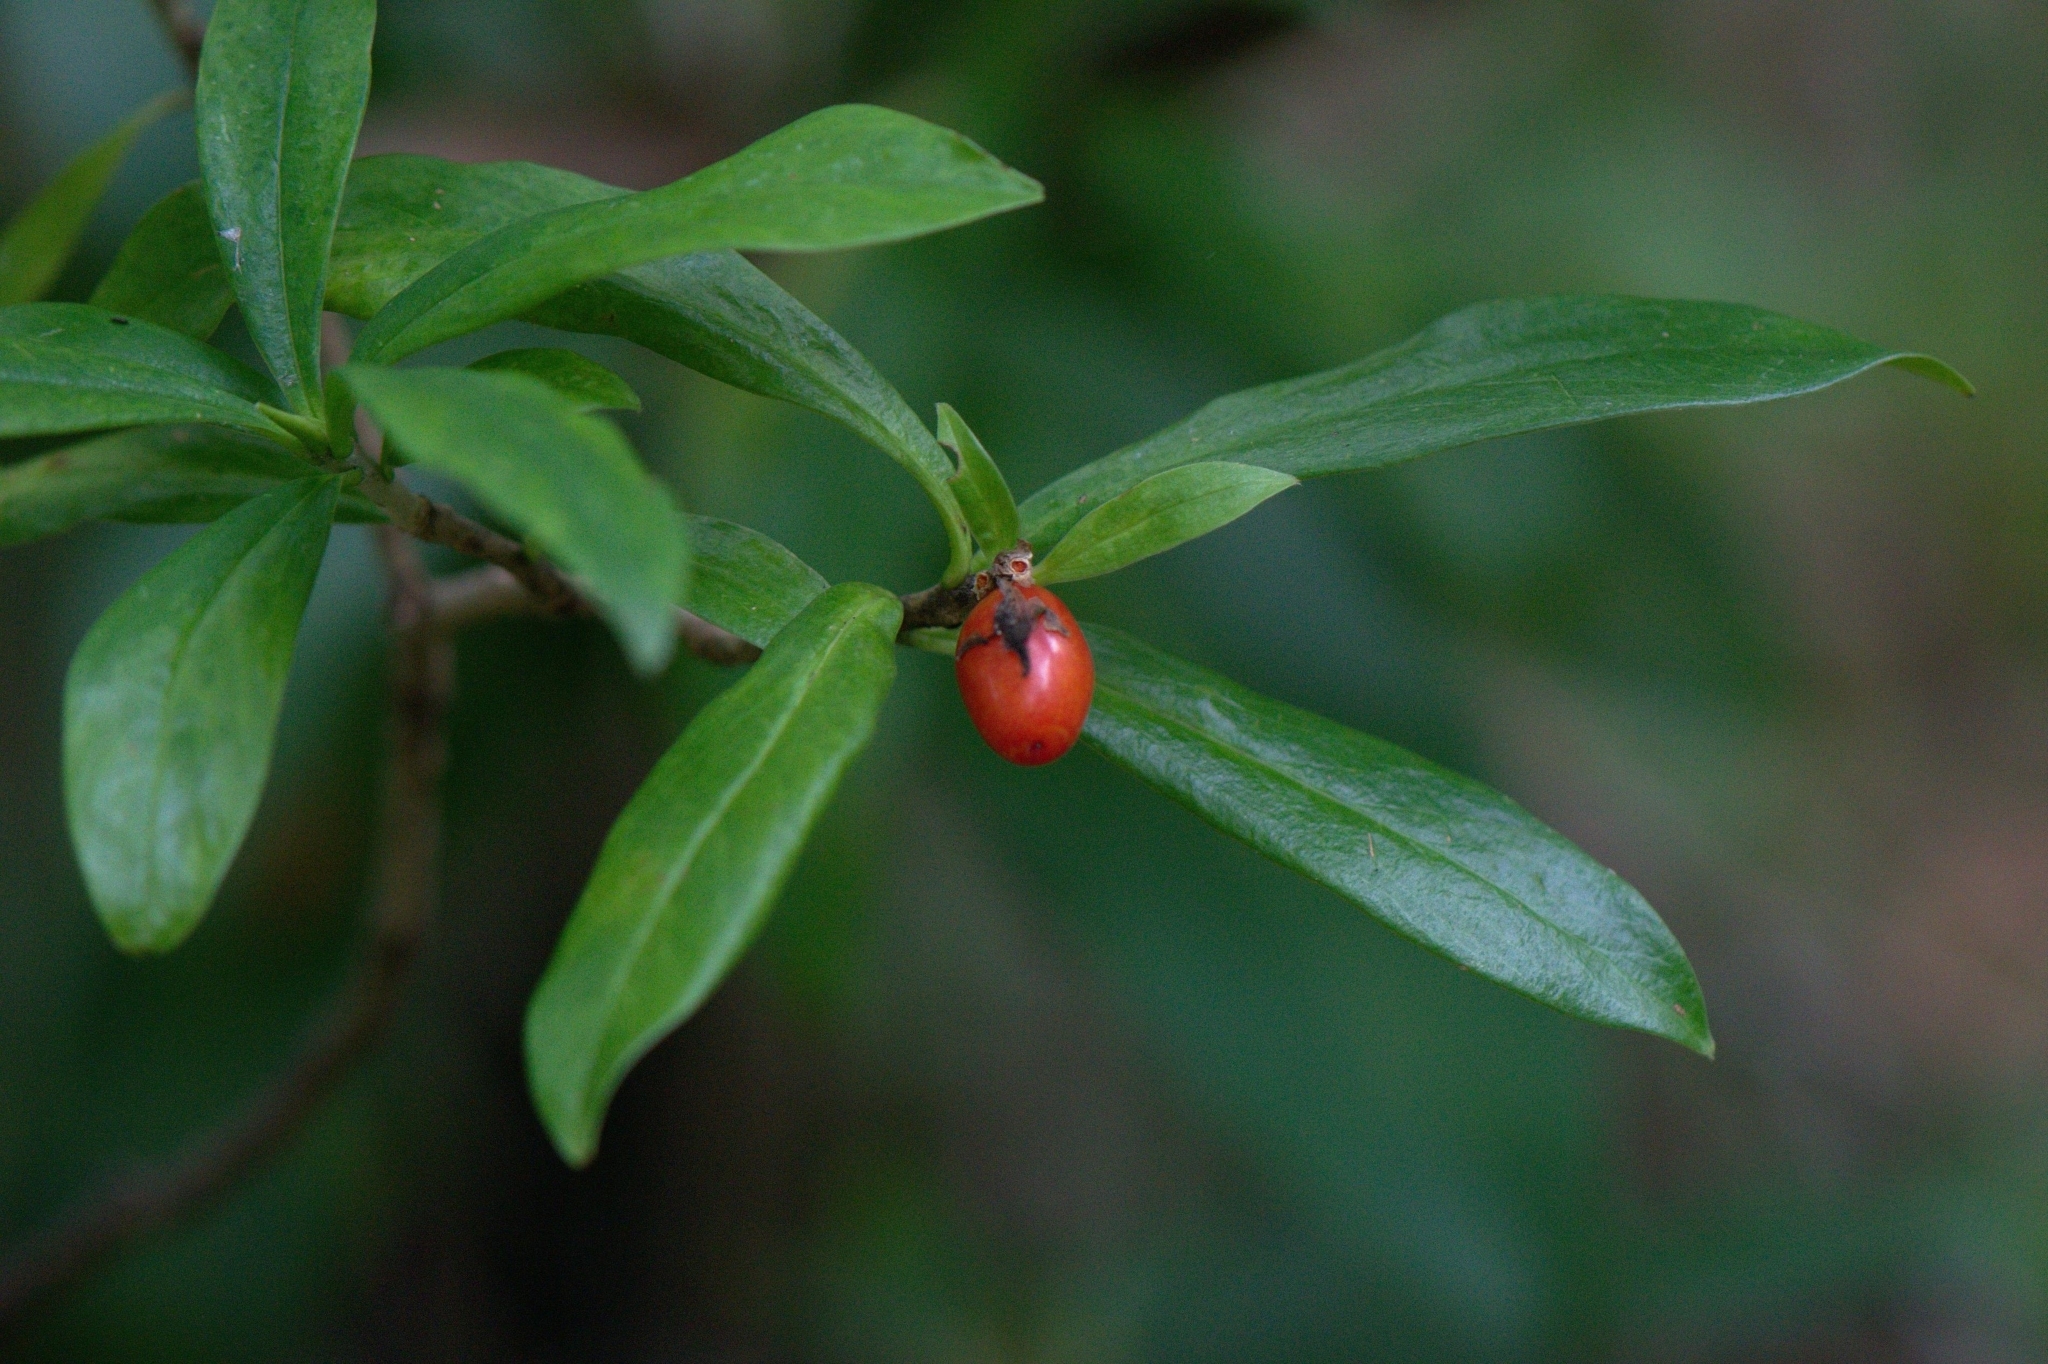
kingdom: Plantae
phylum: Tracheophyta
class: Magnoliopsida
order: Malvales
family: Thymelaeaceae
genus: Daphne
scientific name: Daphne papyracea
